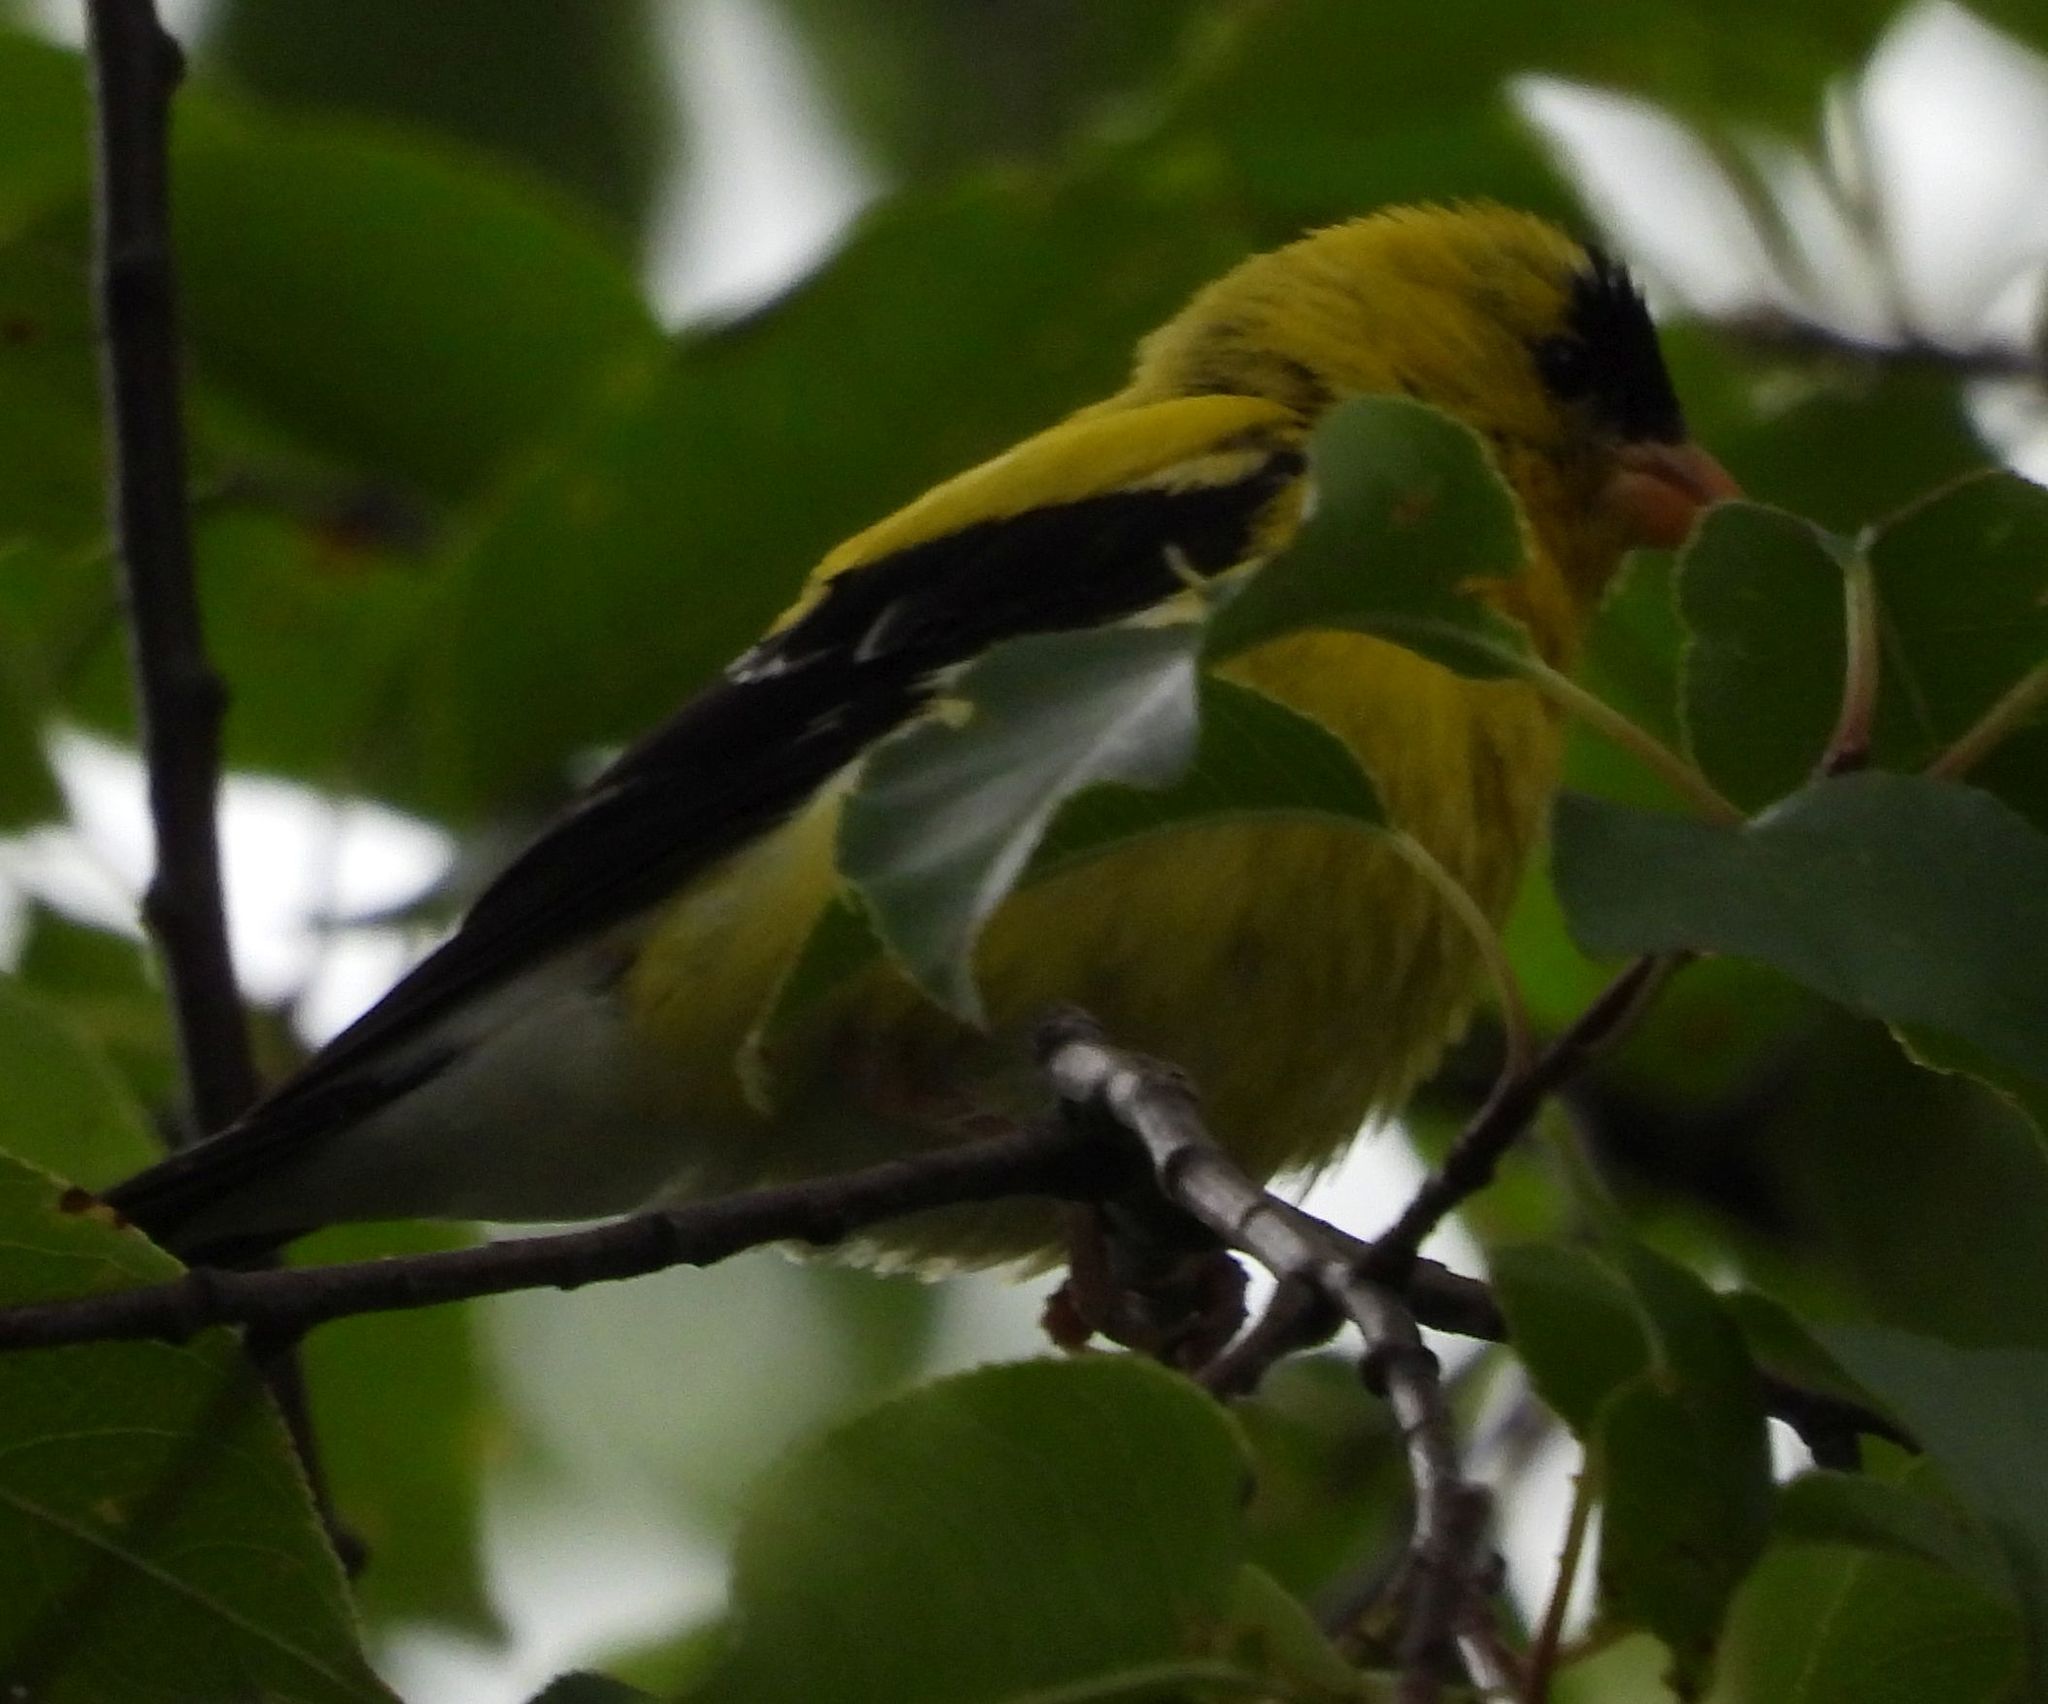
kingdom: Animalia
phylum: Chordata
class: Aves
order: Passeriformes
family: Fringillidae
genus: Spinus
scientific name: Spinus tristis
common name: American goldfinch
